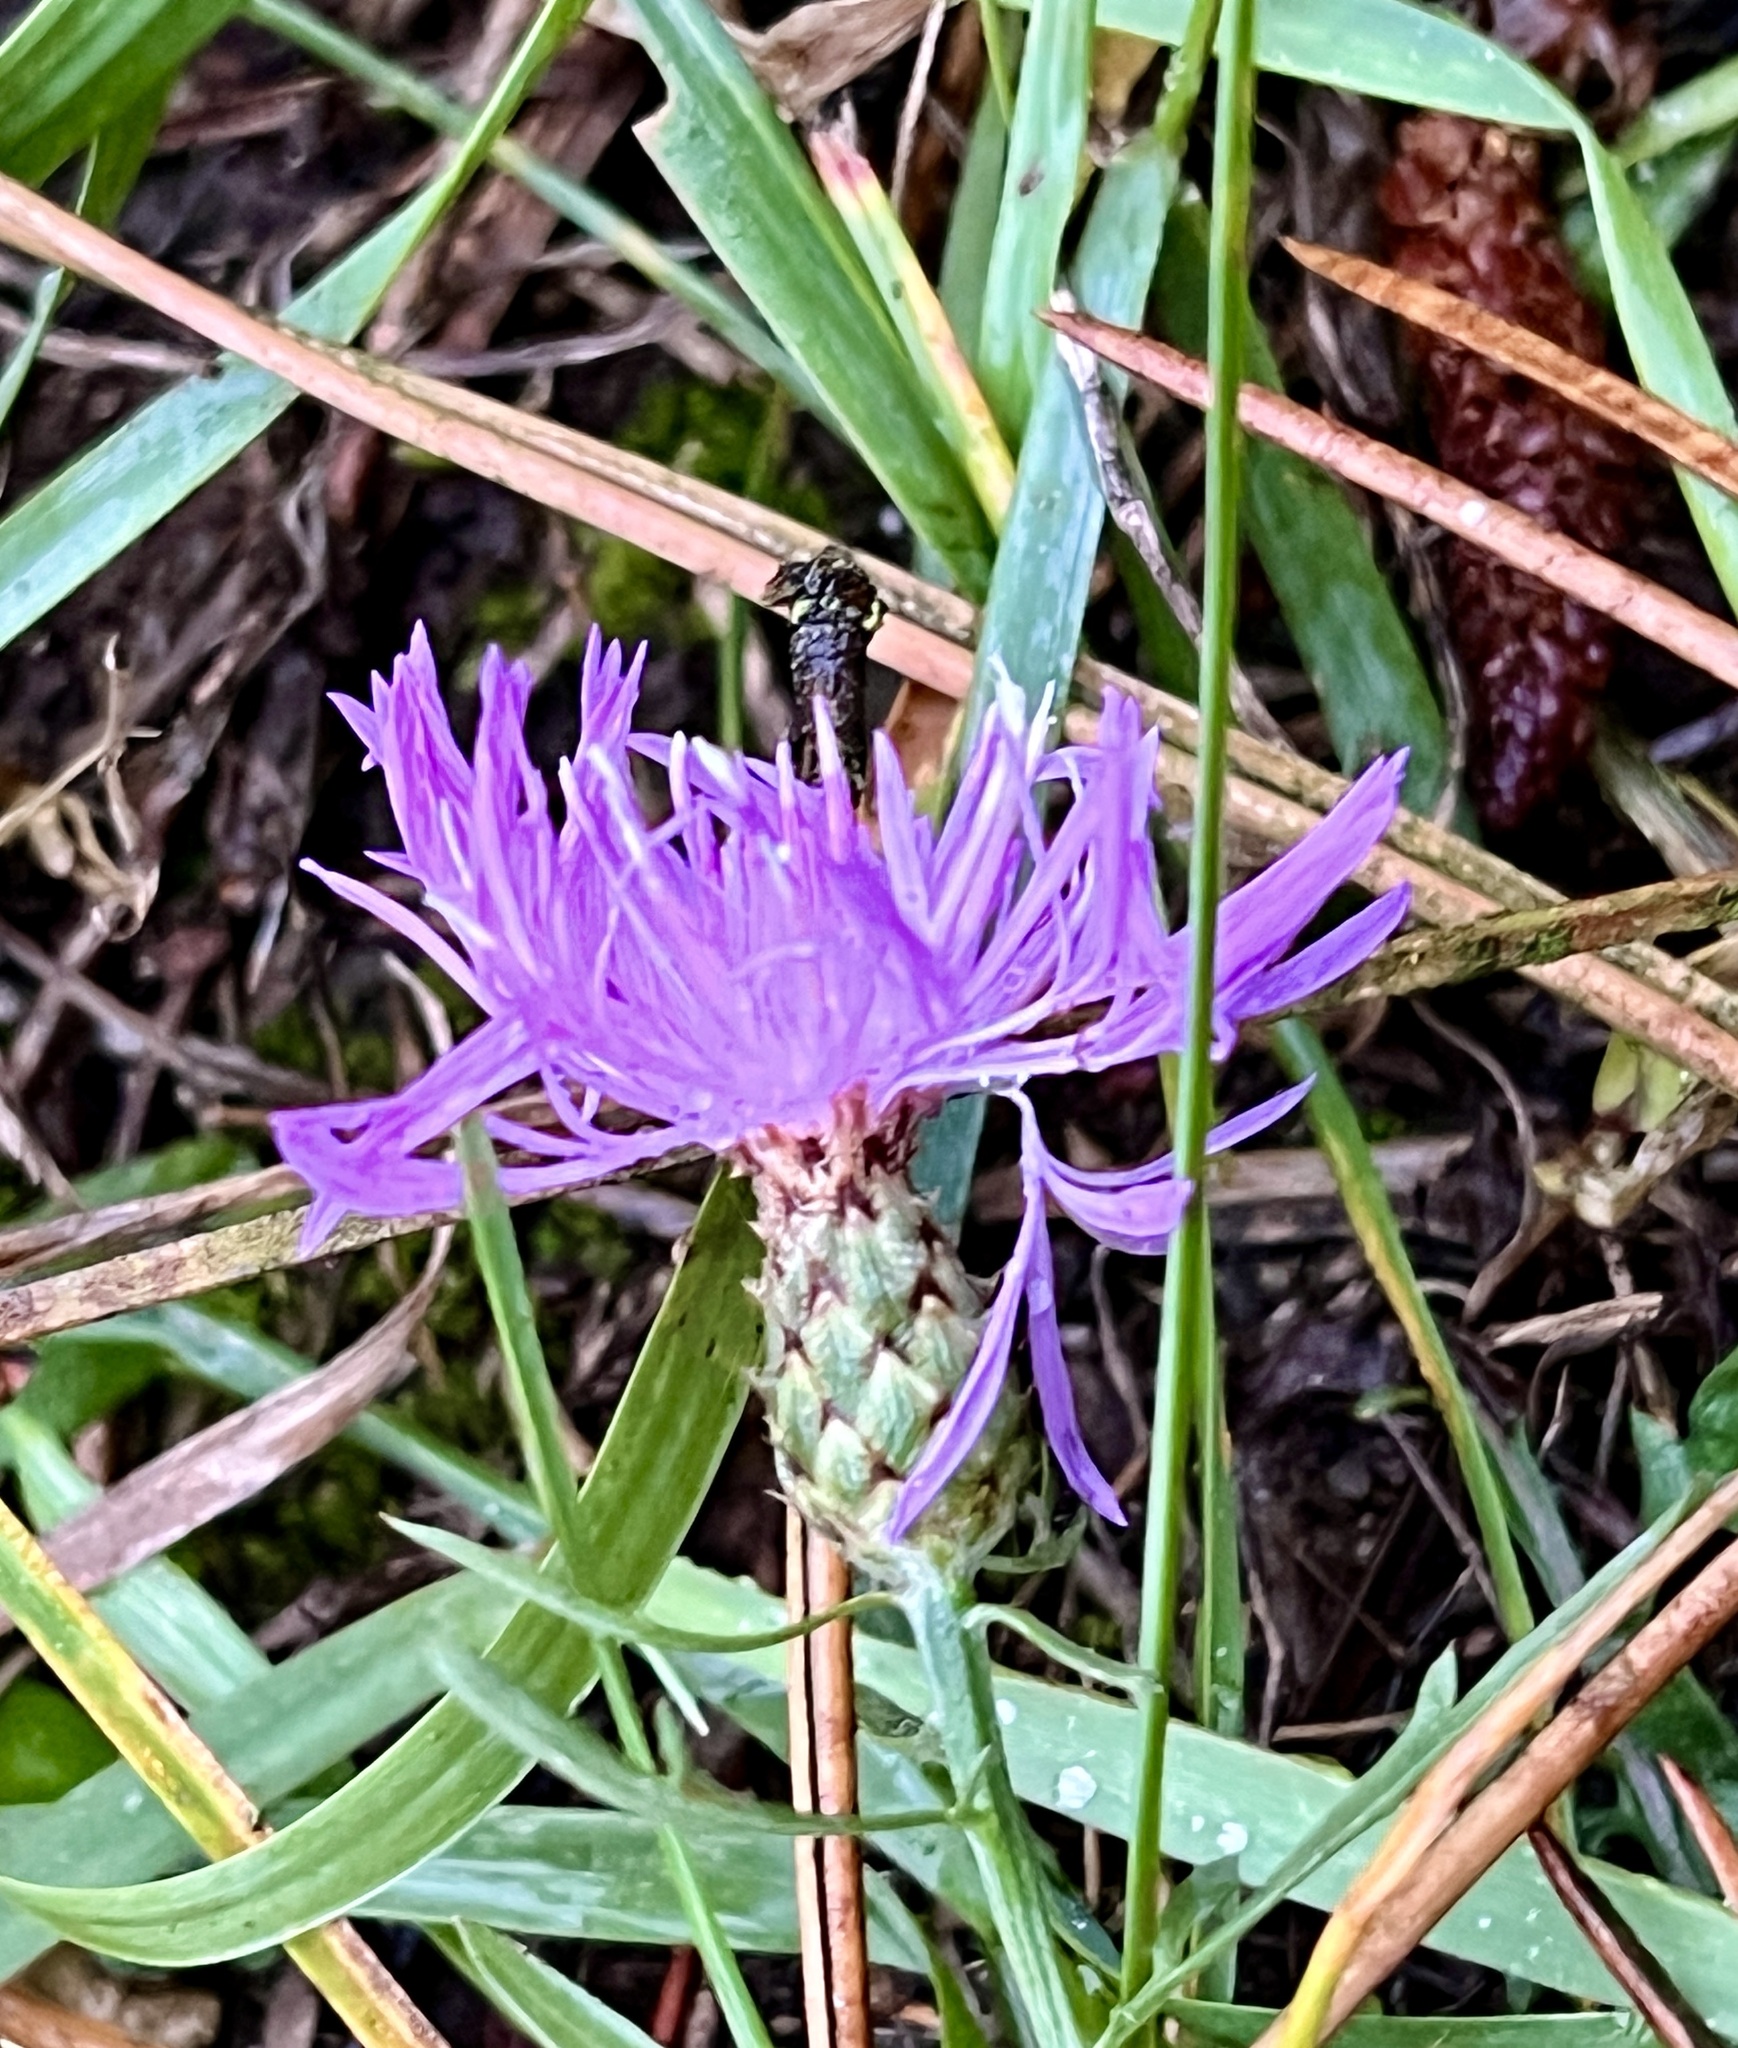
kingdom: Plantae
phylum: Tracheophyta
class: Magnoliopsida
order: Asterales
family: Asteraceae
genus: Centaurea
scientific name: Centaurea stoebe
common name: Spotted knapweed
